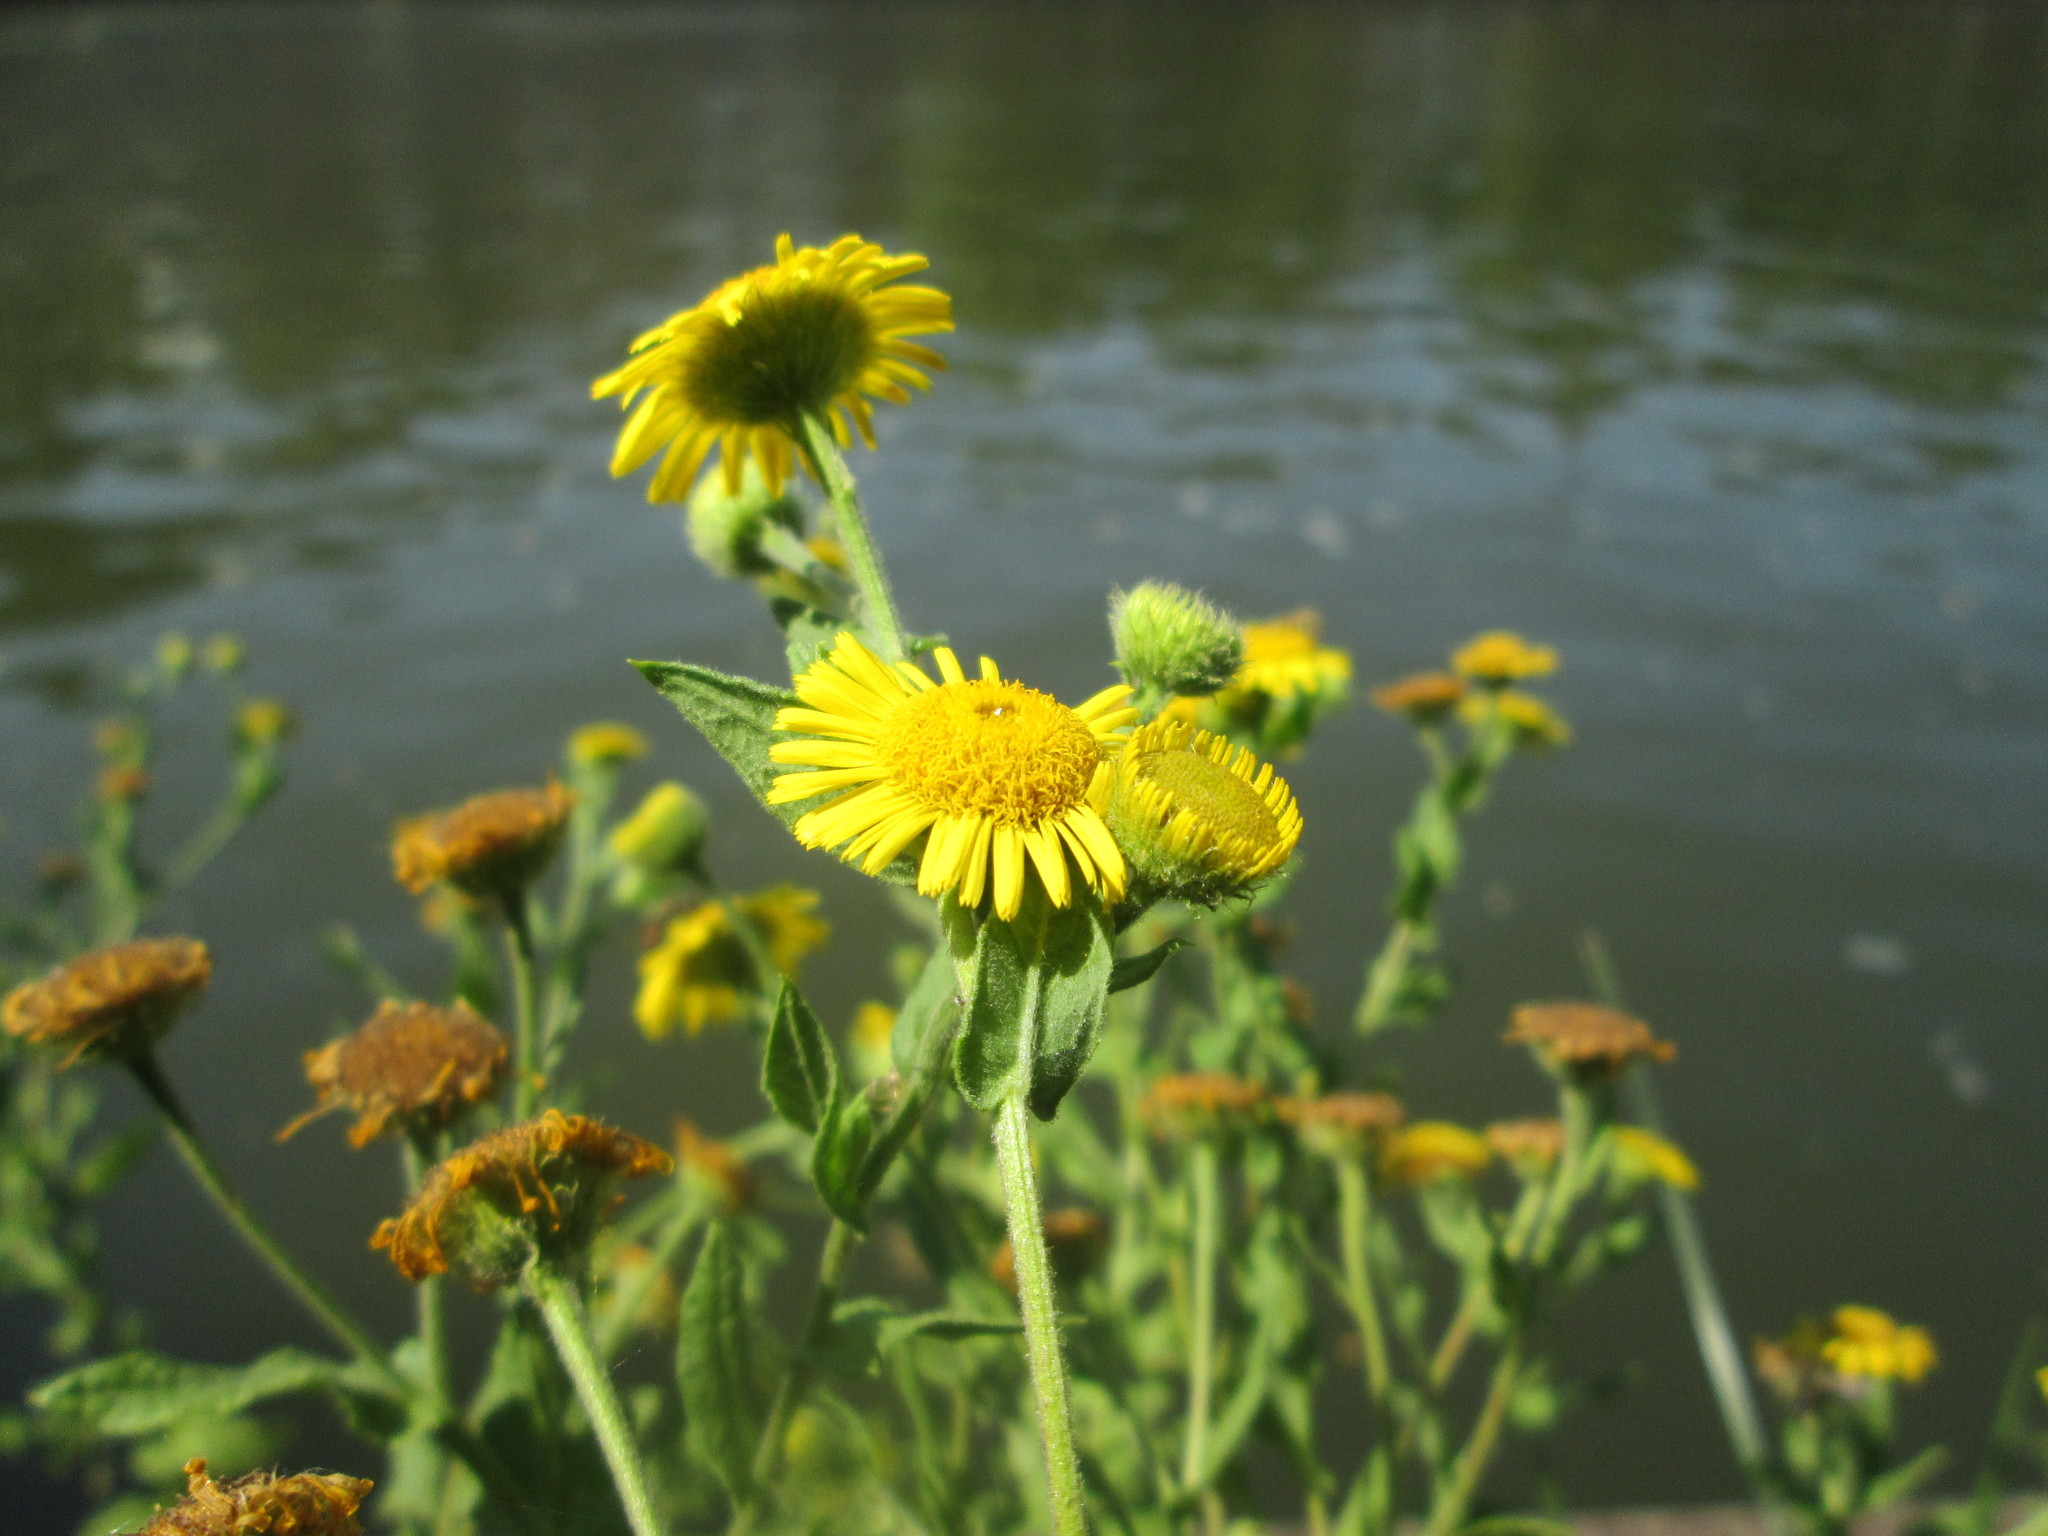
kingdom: Plantae
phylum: Tracheophyta
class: Magnoliopsida
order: Asterales
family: Asteraceae
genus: Pulicaria
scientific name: Pulicaria dysenterica
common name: Common fleabane
